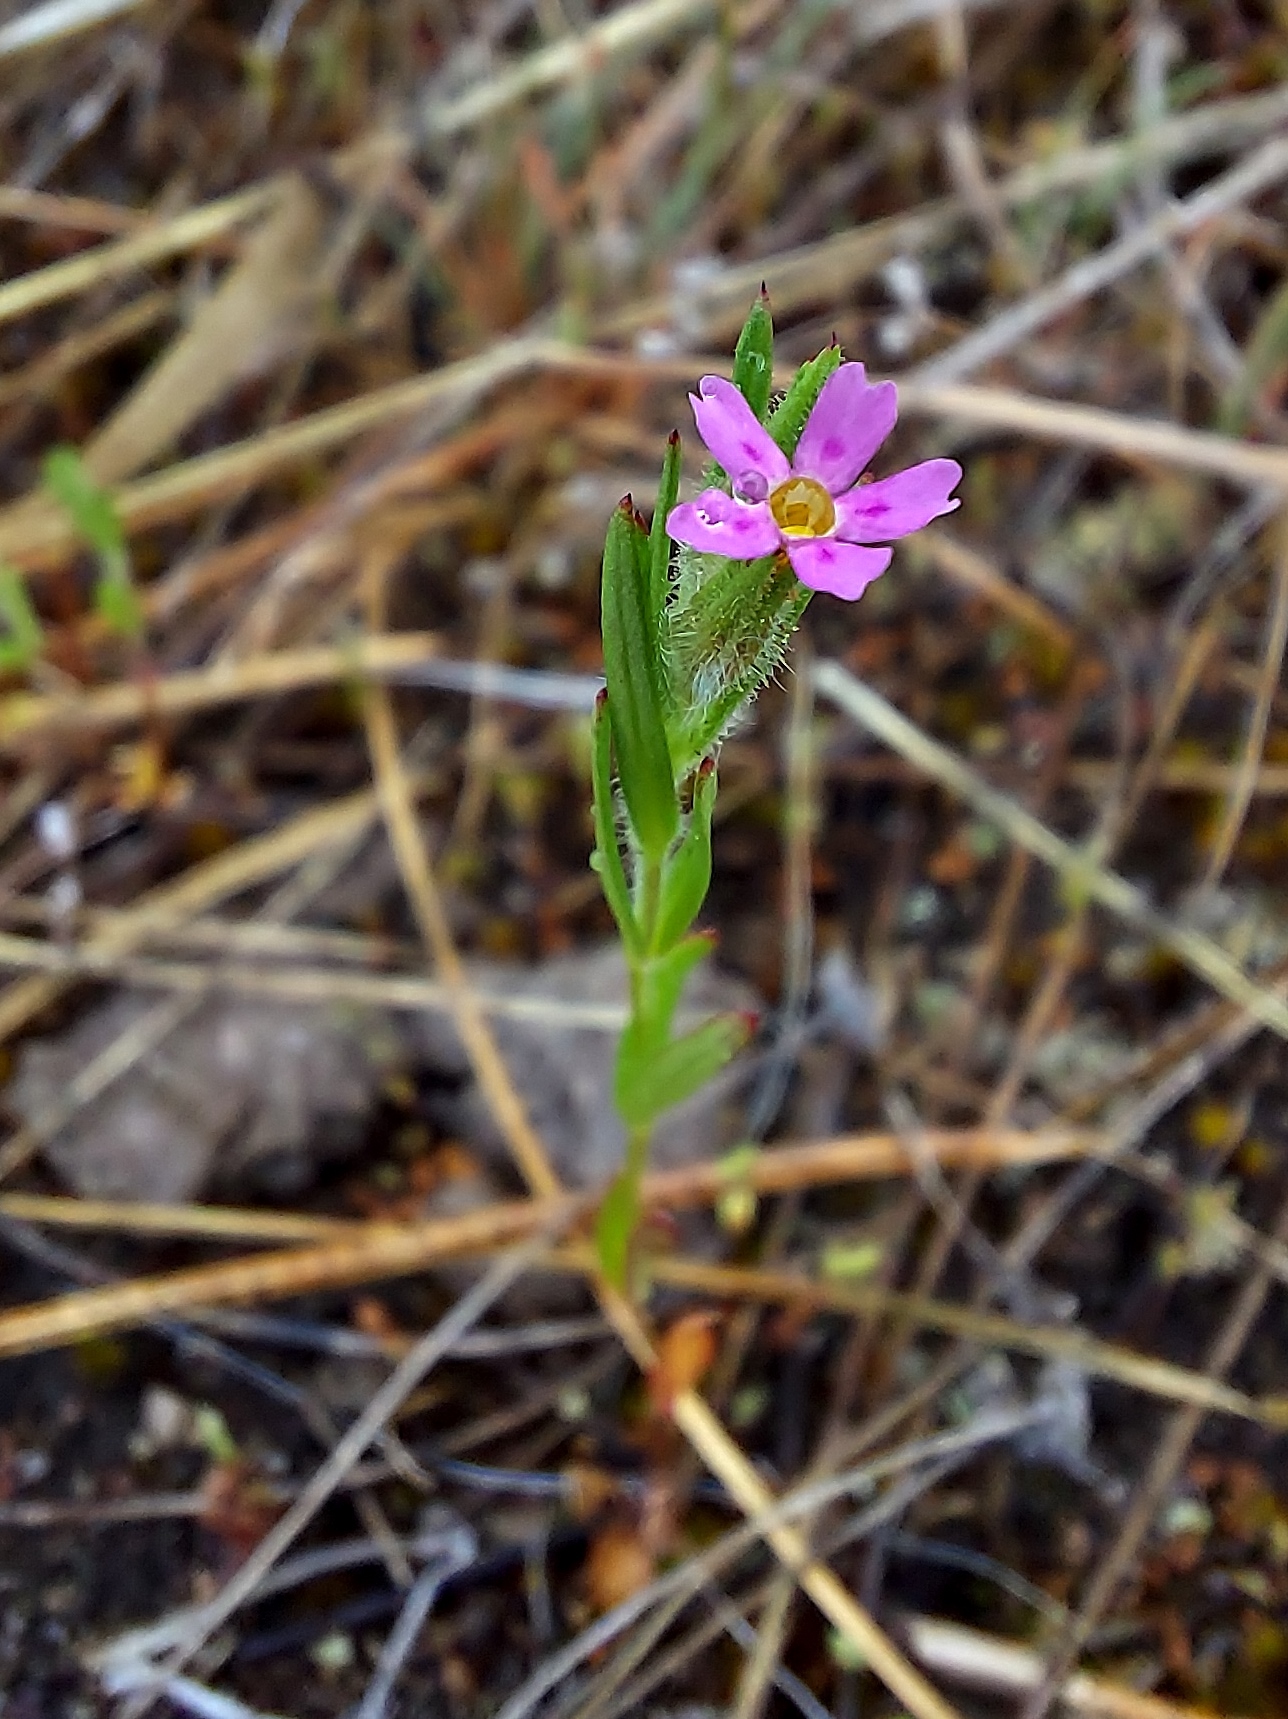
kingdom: Plantae
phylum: Tracheophyta
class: Magnoliopsida
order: Ericales
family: Polemoniaceae
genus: Phlox
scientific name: Phlox gracilis
